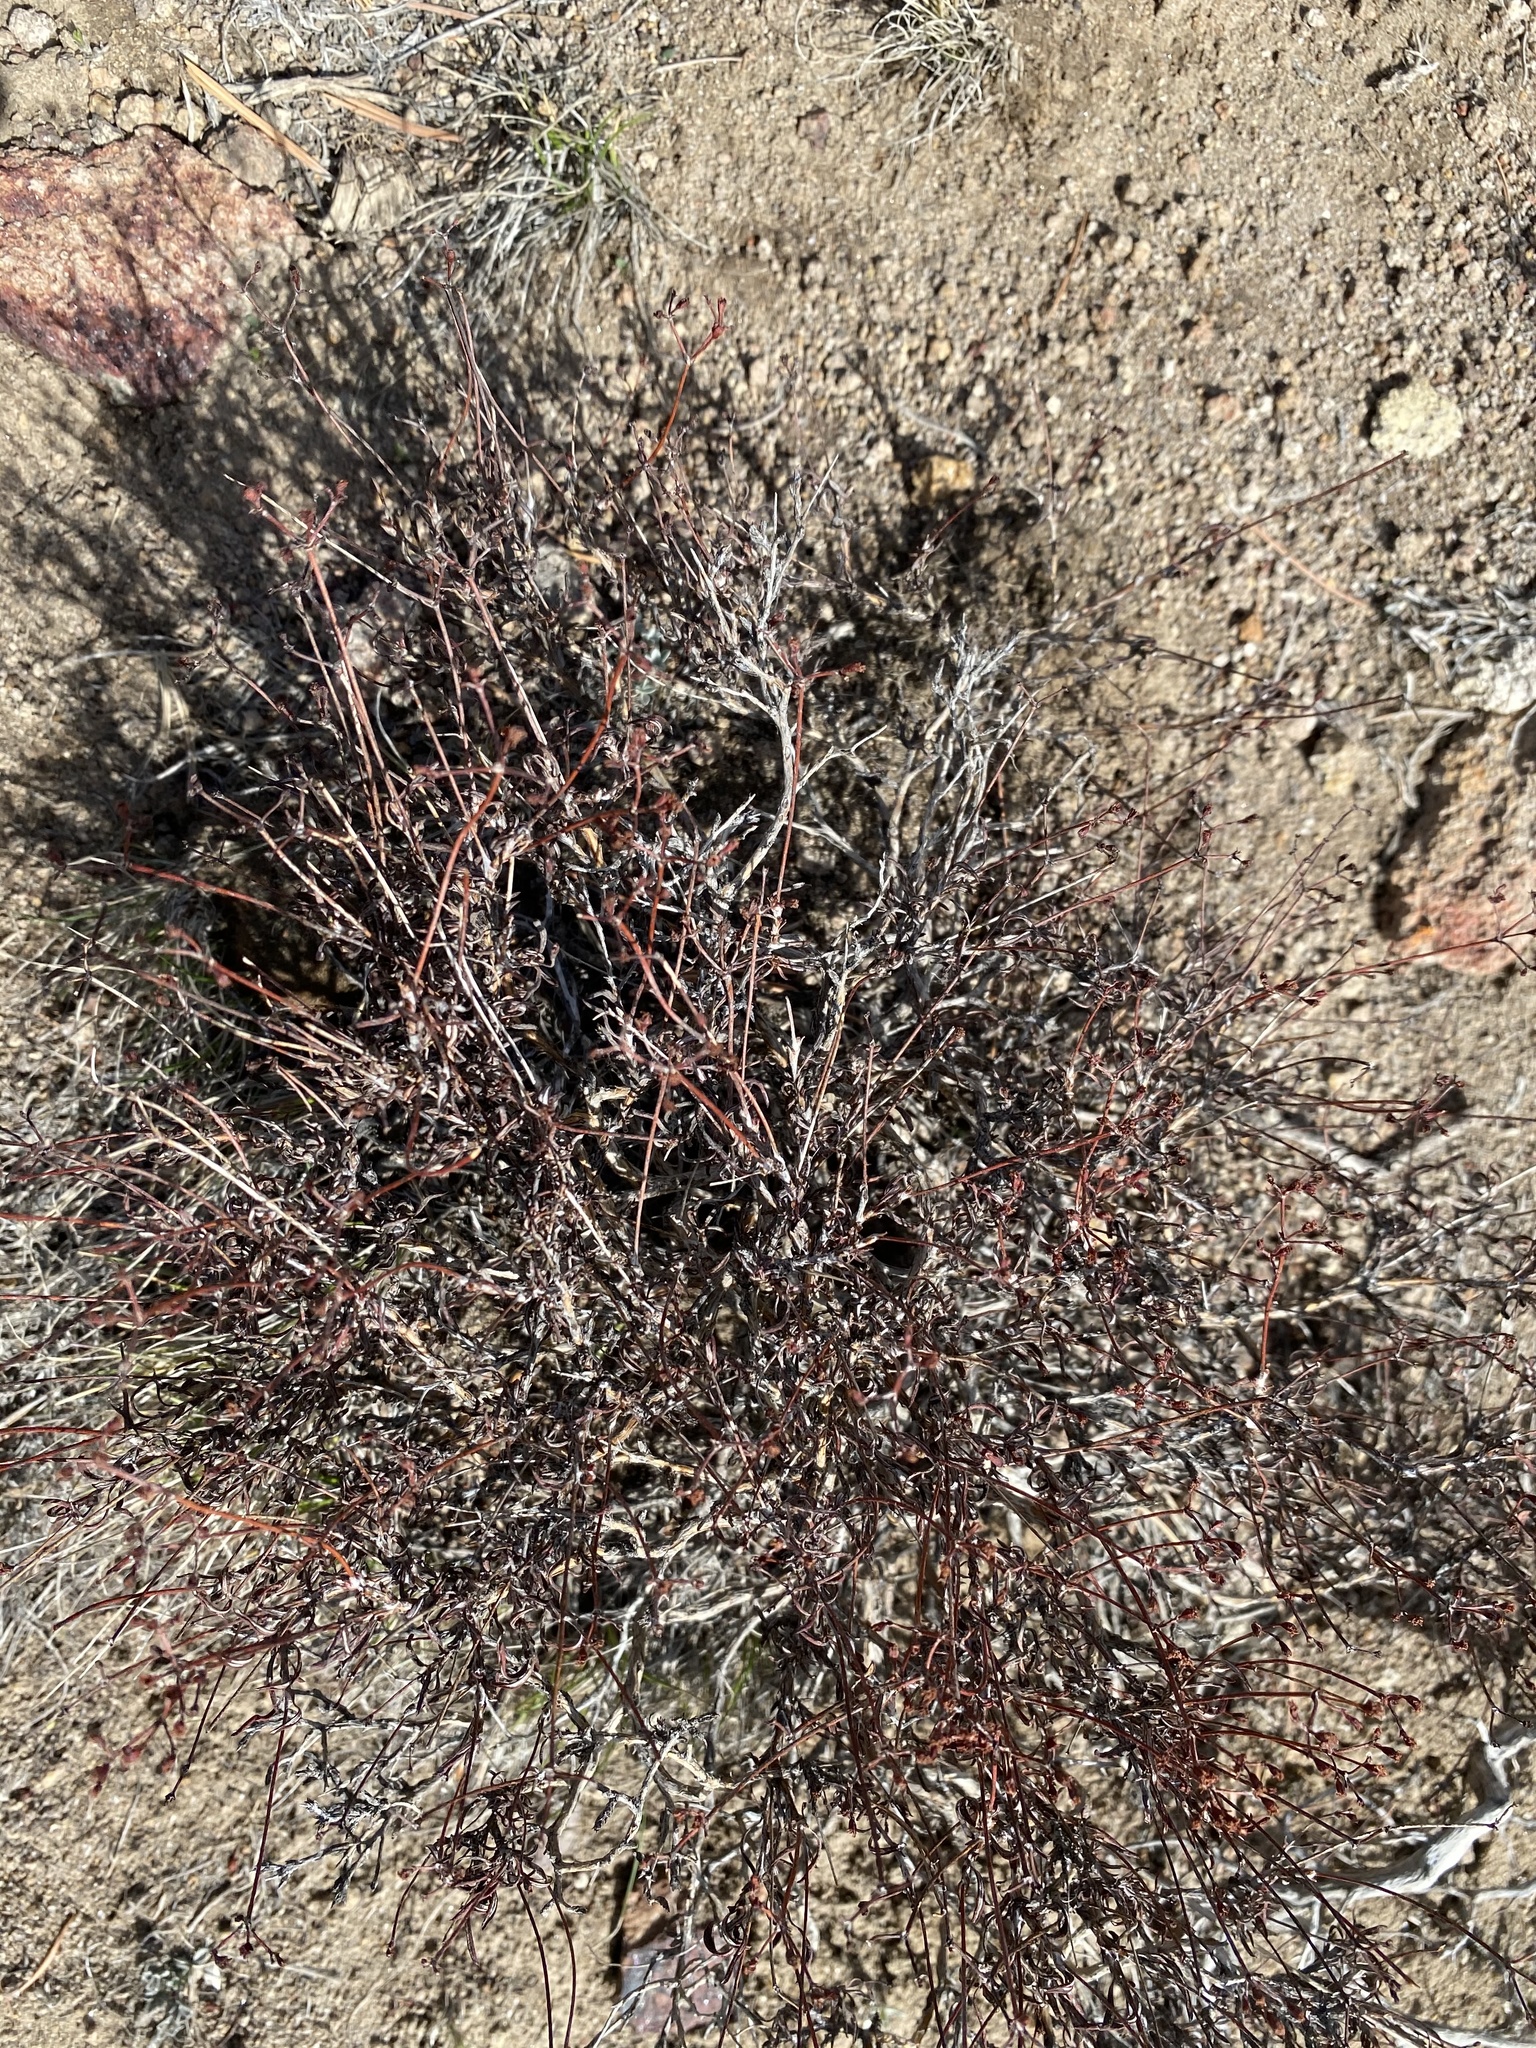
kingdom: Plantae
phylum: Tracheophyta
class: Magnoliopsida
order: Caryophyllales
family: Polygonaceae
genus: Eriogonum
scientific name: Eriogonum microtheca
